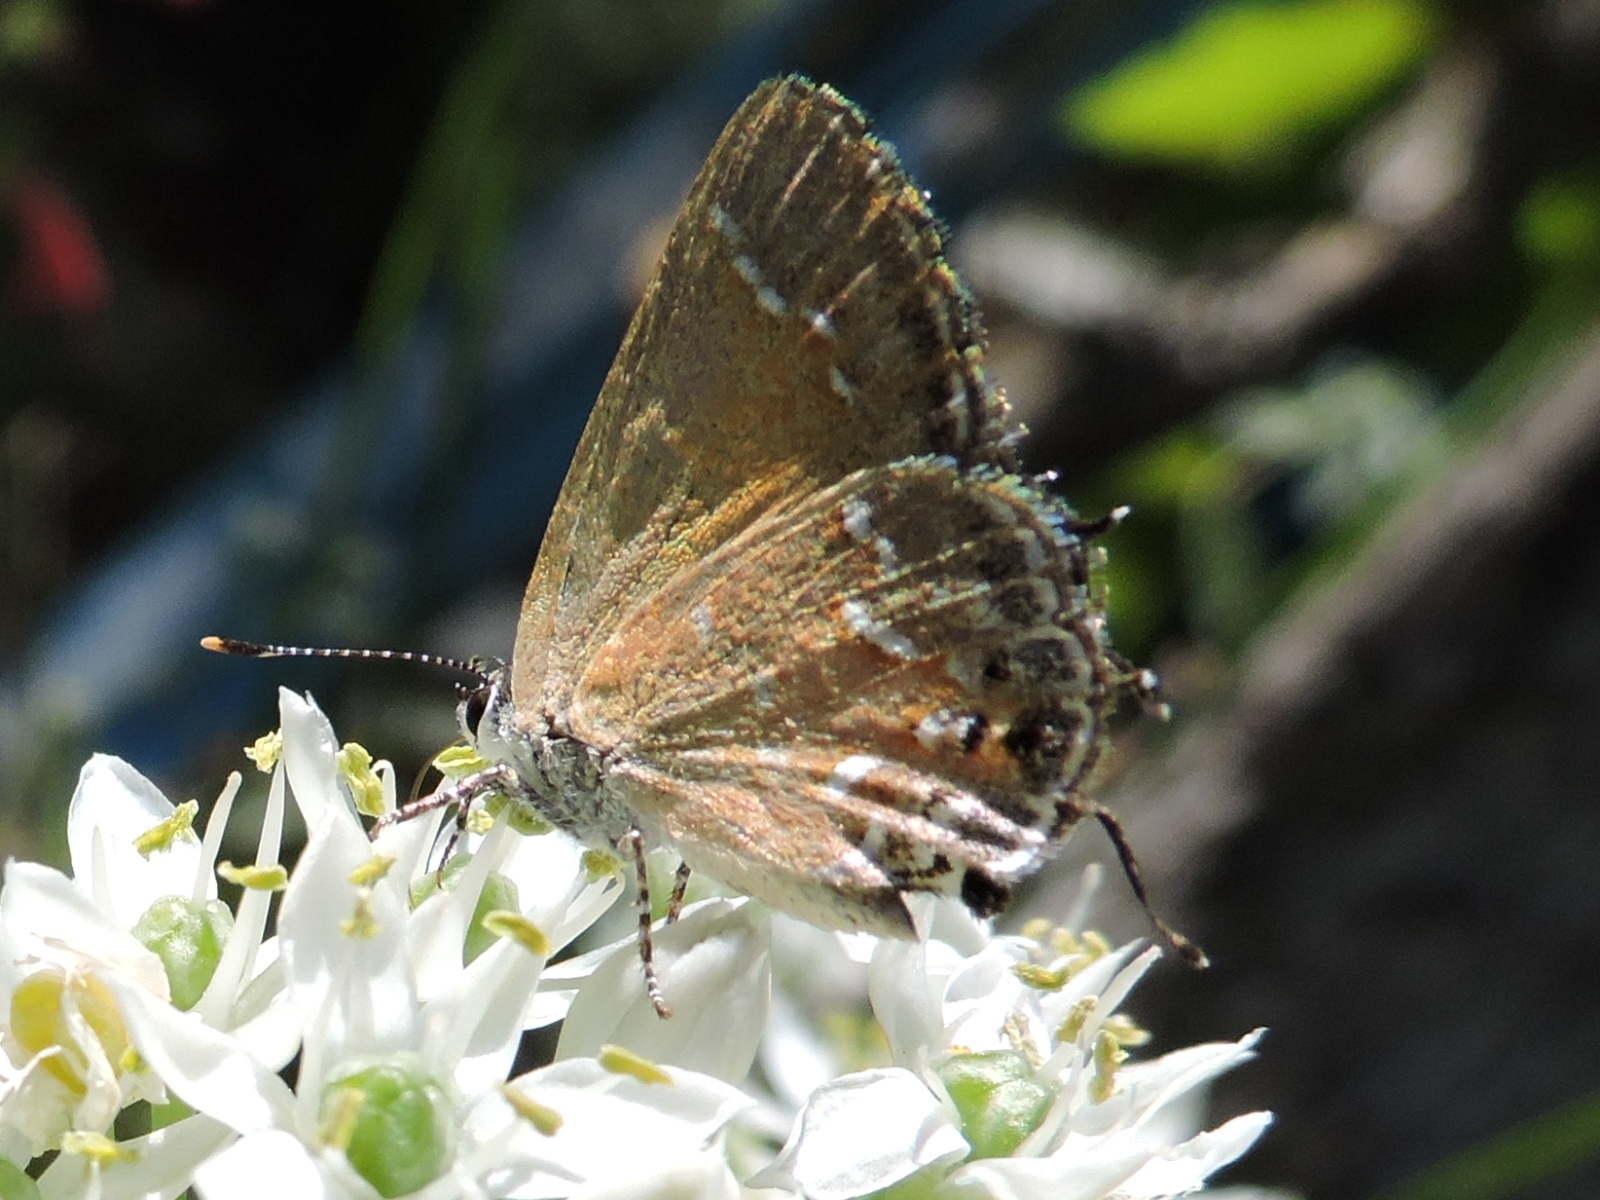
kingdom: Animalia
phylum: Arthropoda
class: Insecta
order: Lepidoptera
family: Lycaenidae
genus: Mitoura
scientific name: Mitoura gryneus
